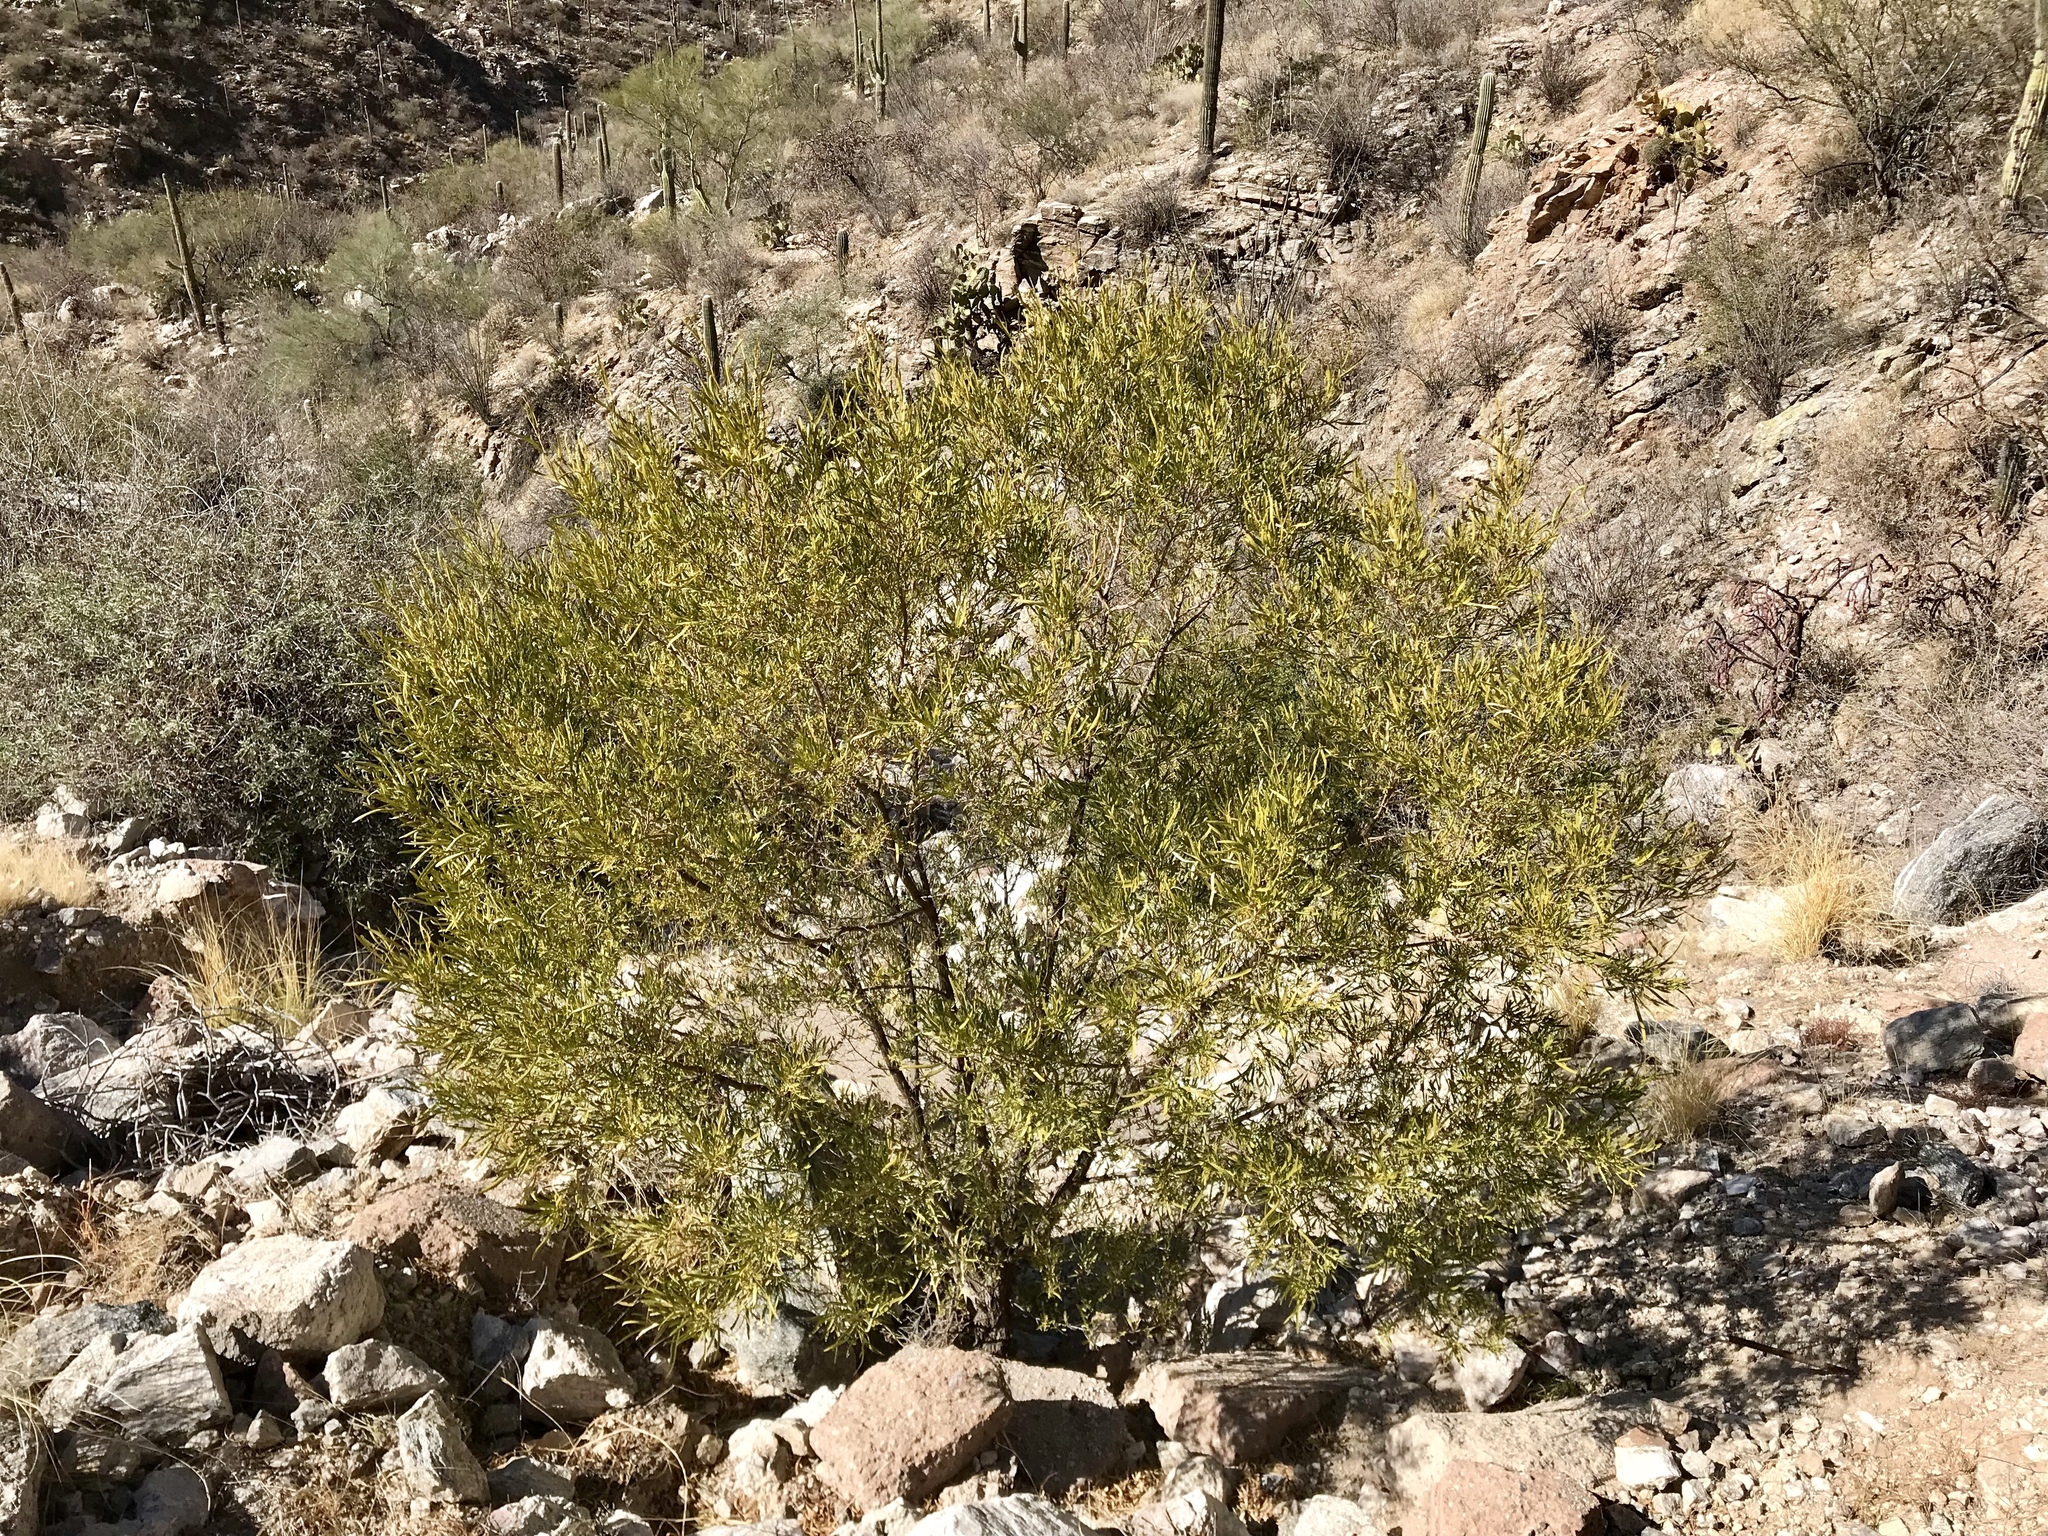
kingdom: Plantae
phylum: Tracheophyta
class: Magnoliopsida
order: Sapindales
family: Sapindaceae
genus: Dodonaea
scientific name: Dodonaea viscosa
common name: Hopbush
